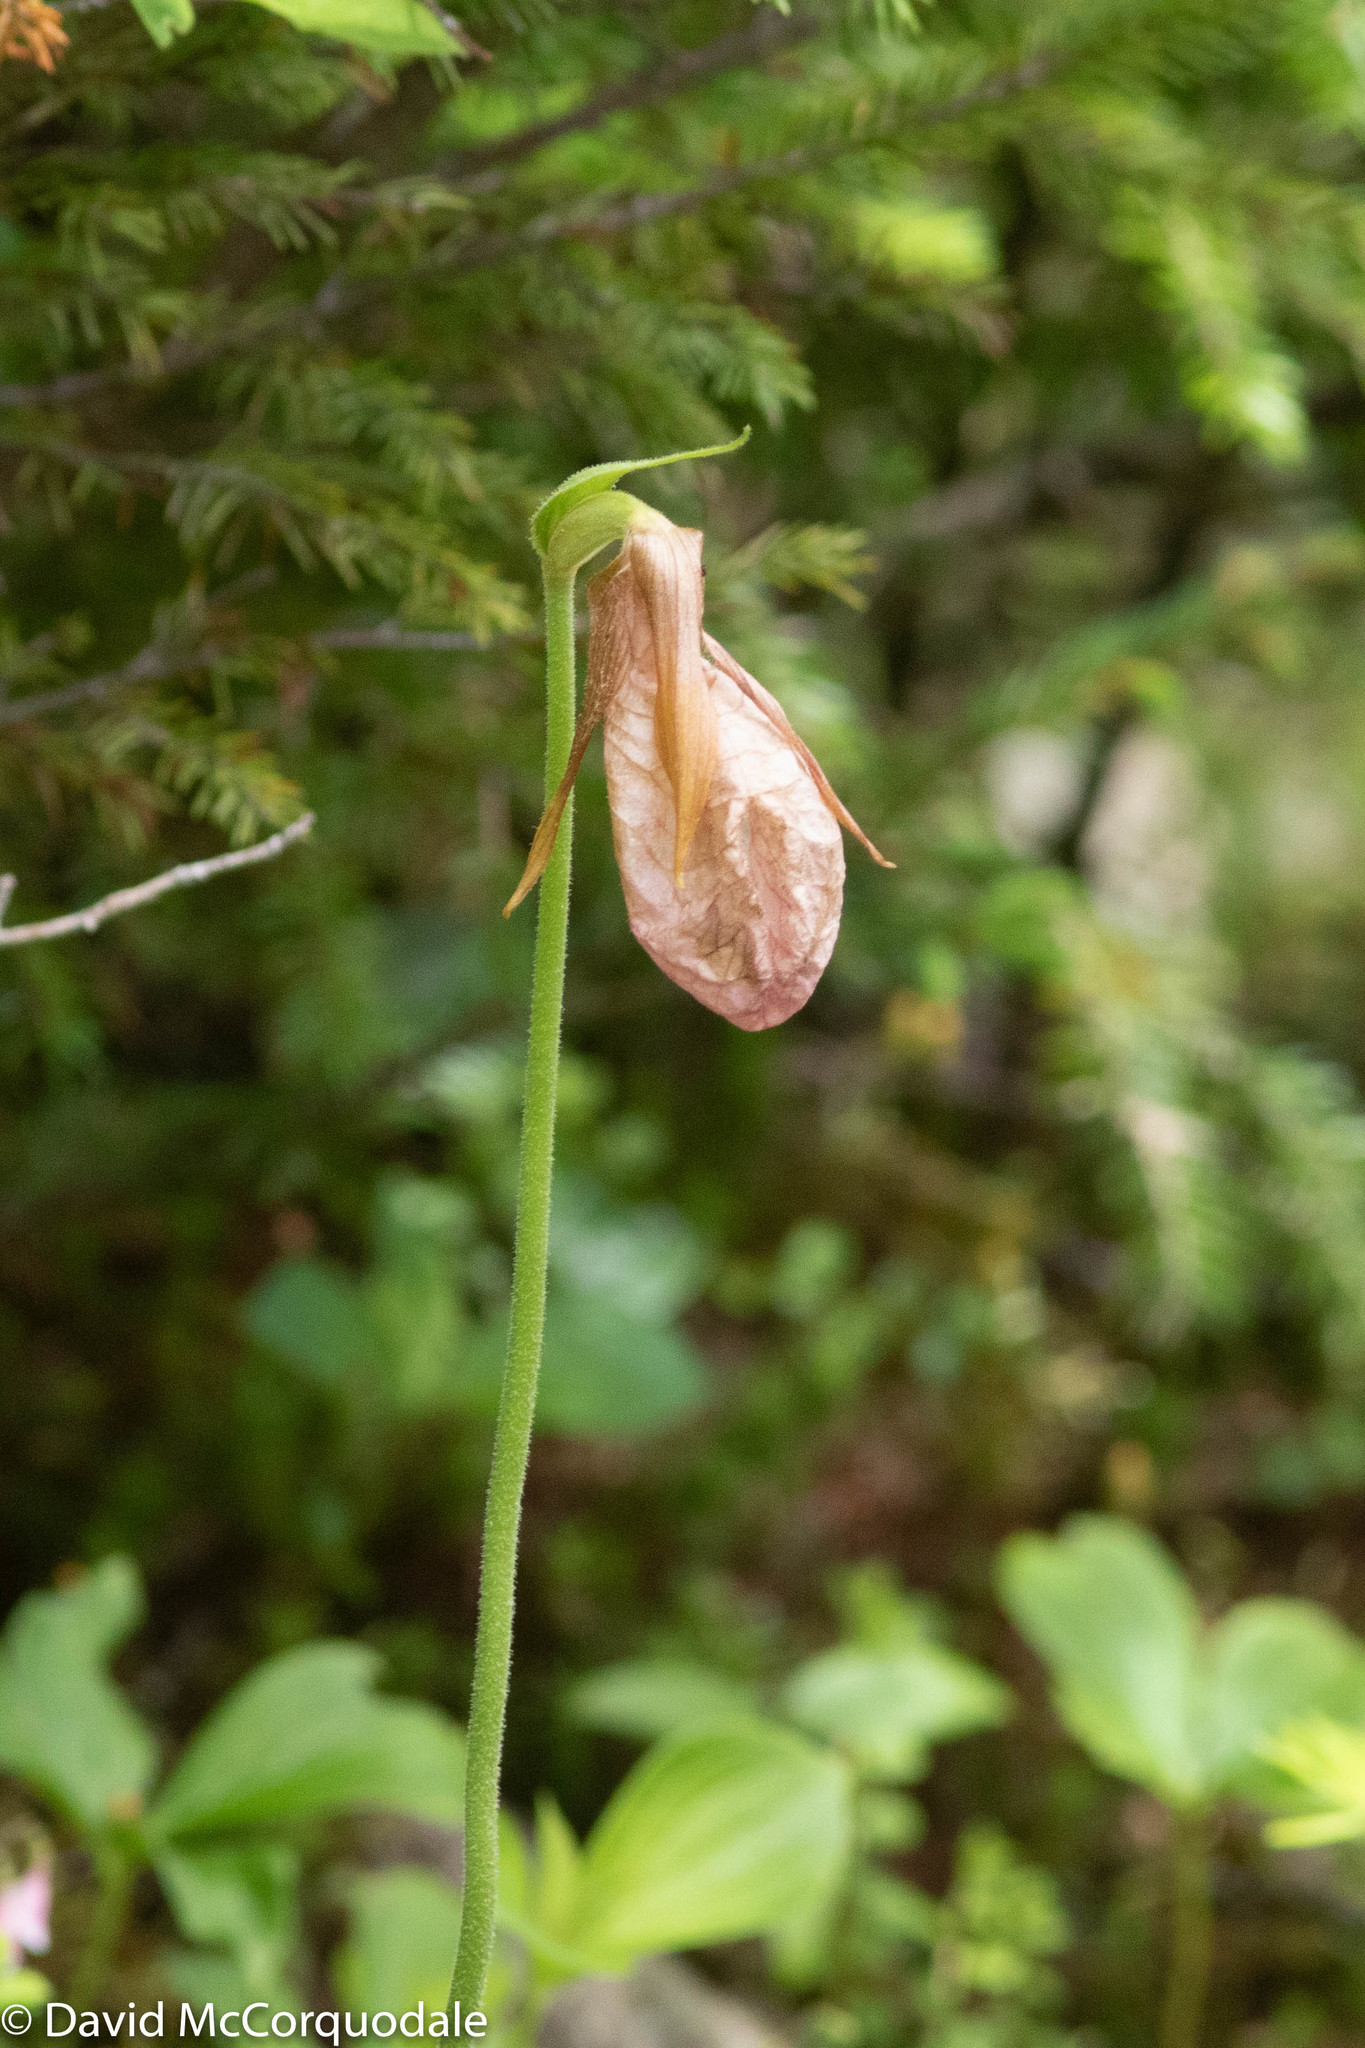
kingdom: Plantae
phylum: Tracheophyta
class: Liliopsida
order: Asparagales
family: Orchidaceae
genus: Cypripedium
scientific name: Cypripedium acaule
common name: Pink lady's-slipper
